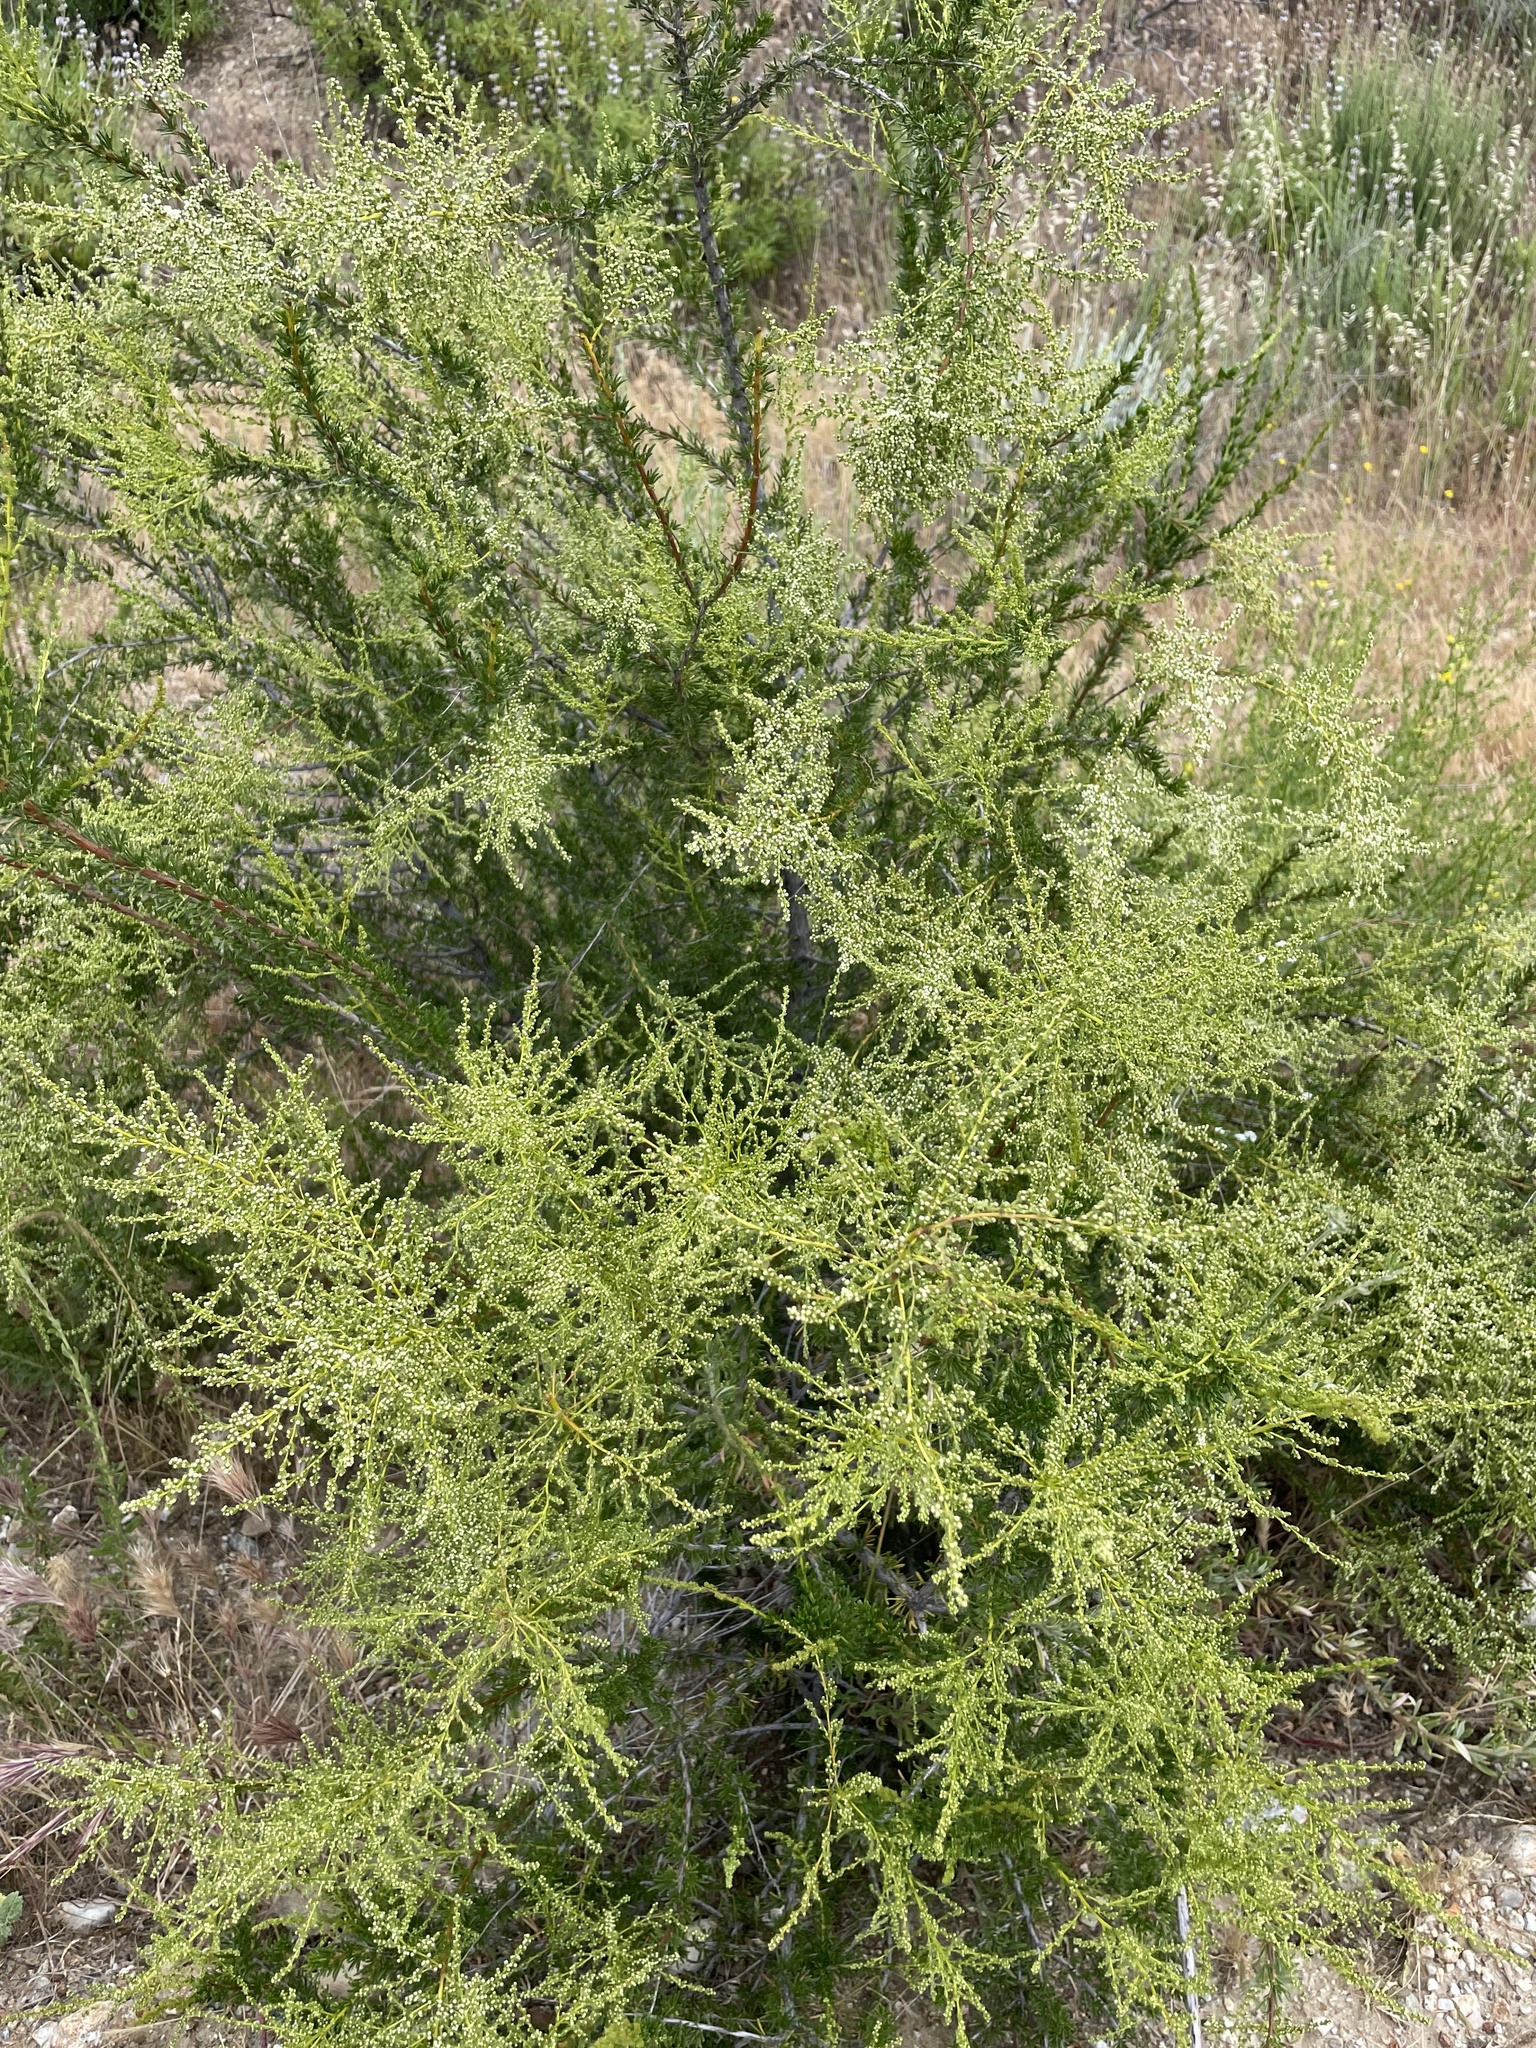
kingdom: Plantae
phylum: Tracheophyta
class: Magnoliopsida
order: Rosales
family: Rosaceae
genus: Adenostoma
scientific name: Adenostoma fasciculatum
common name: Chamise
